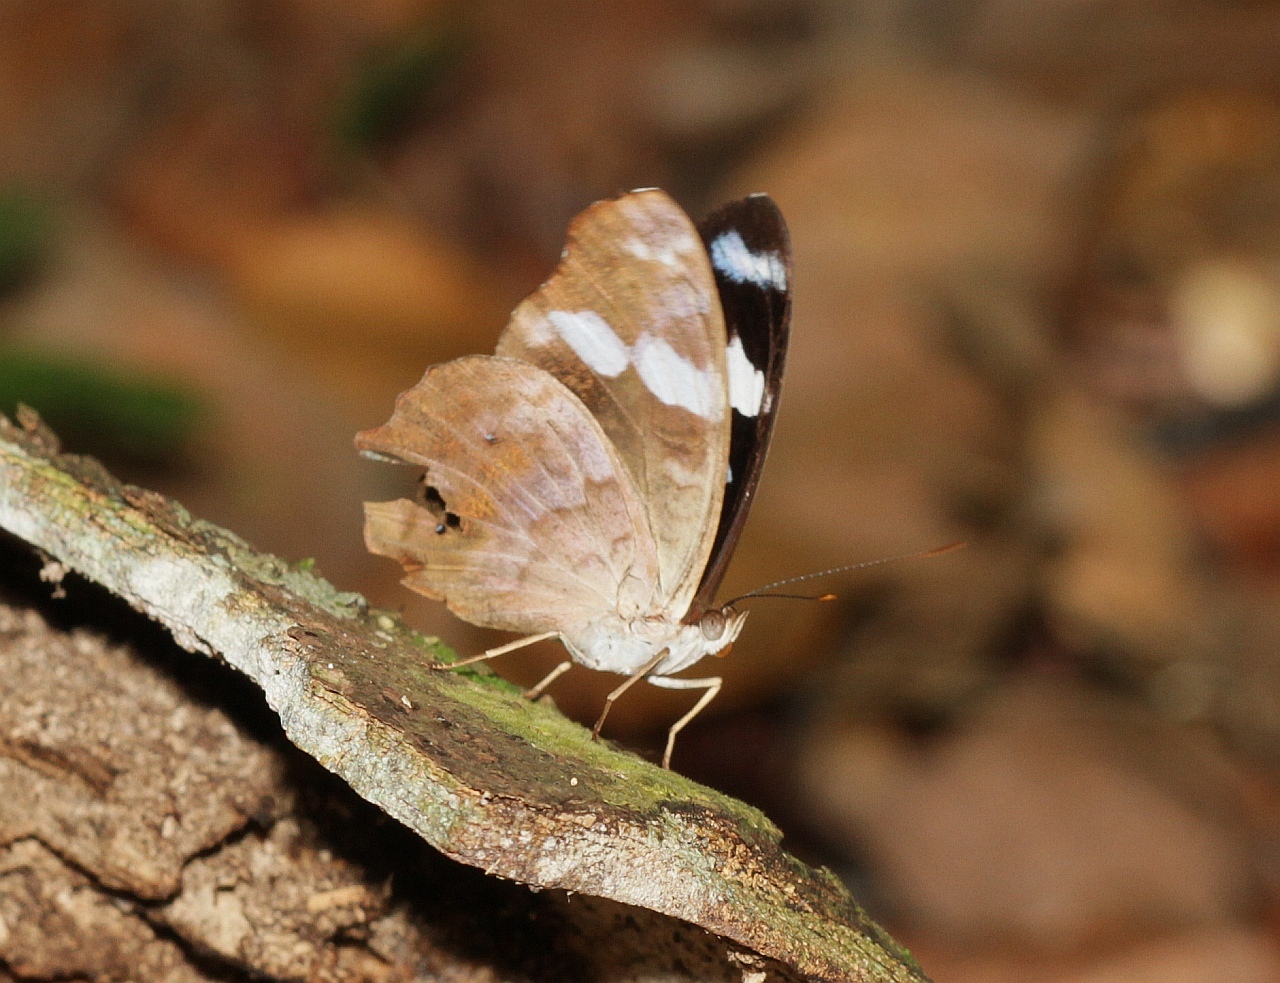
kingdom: Animalia
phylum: Arthropoda
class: Insecta
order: Lepidoptera
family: Nymphalidae
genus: Myscelia
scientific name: Myscelia capenas
